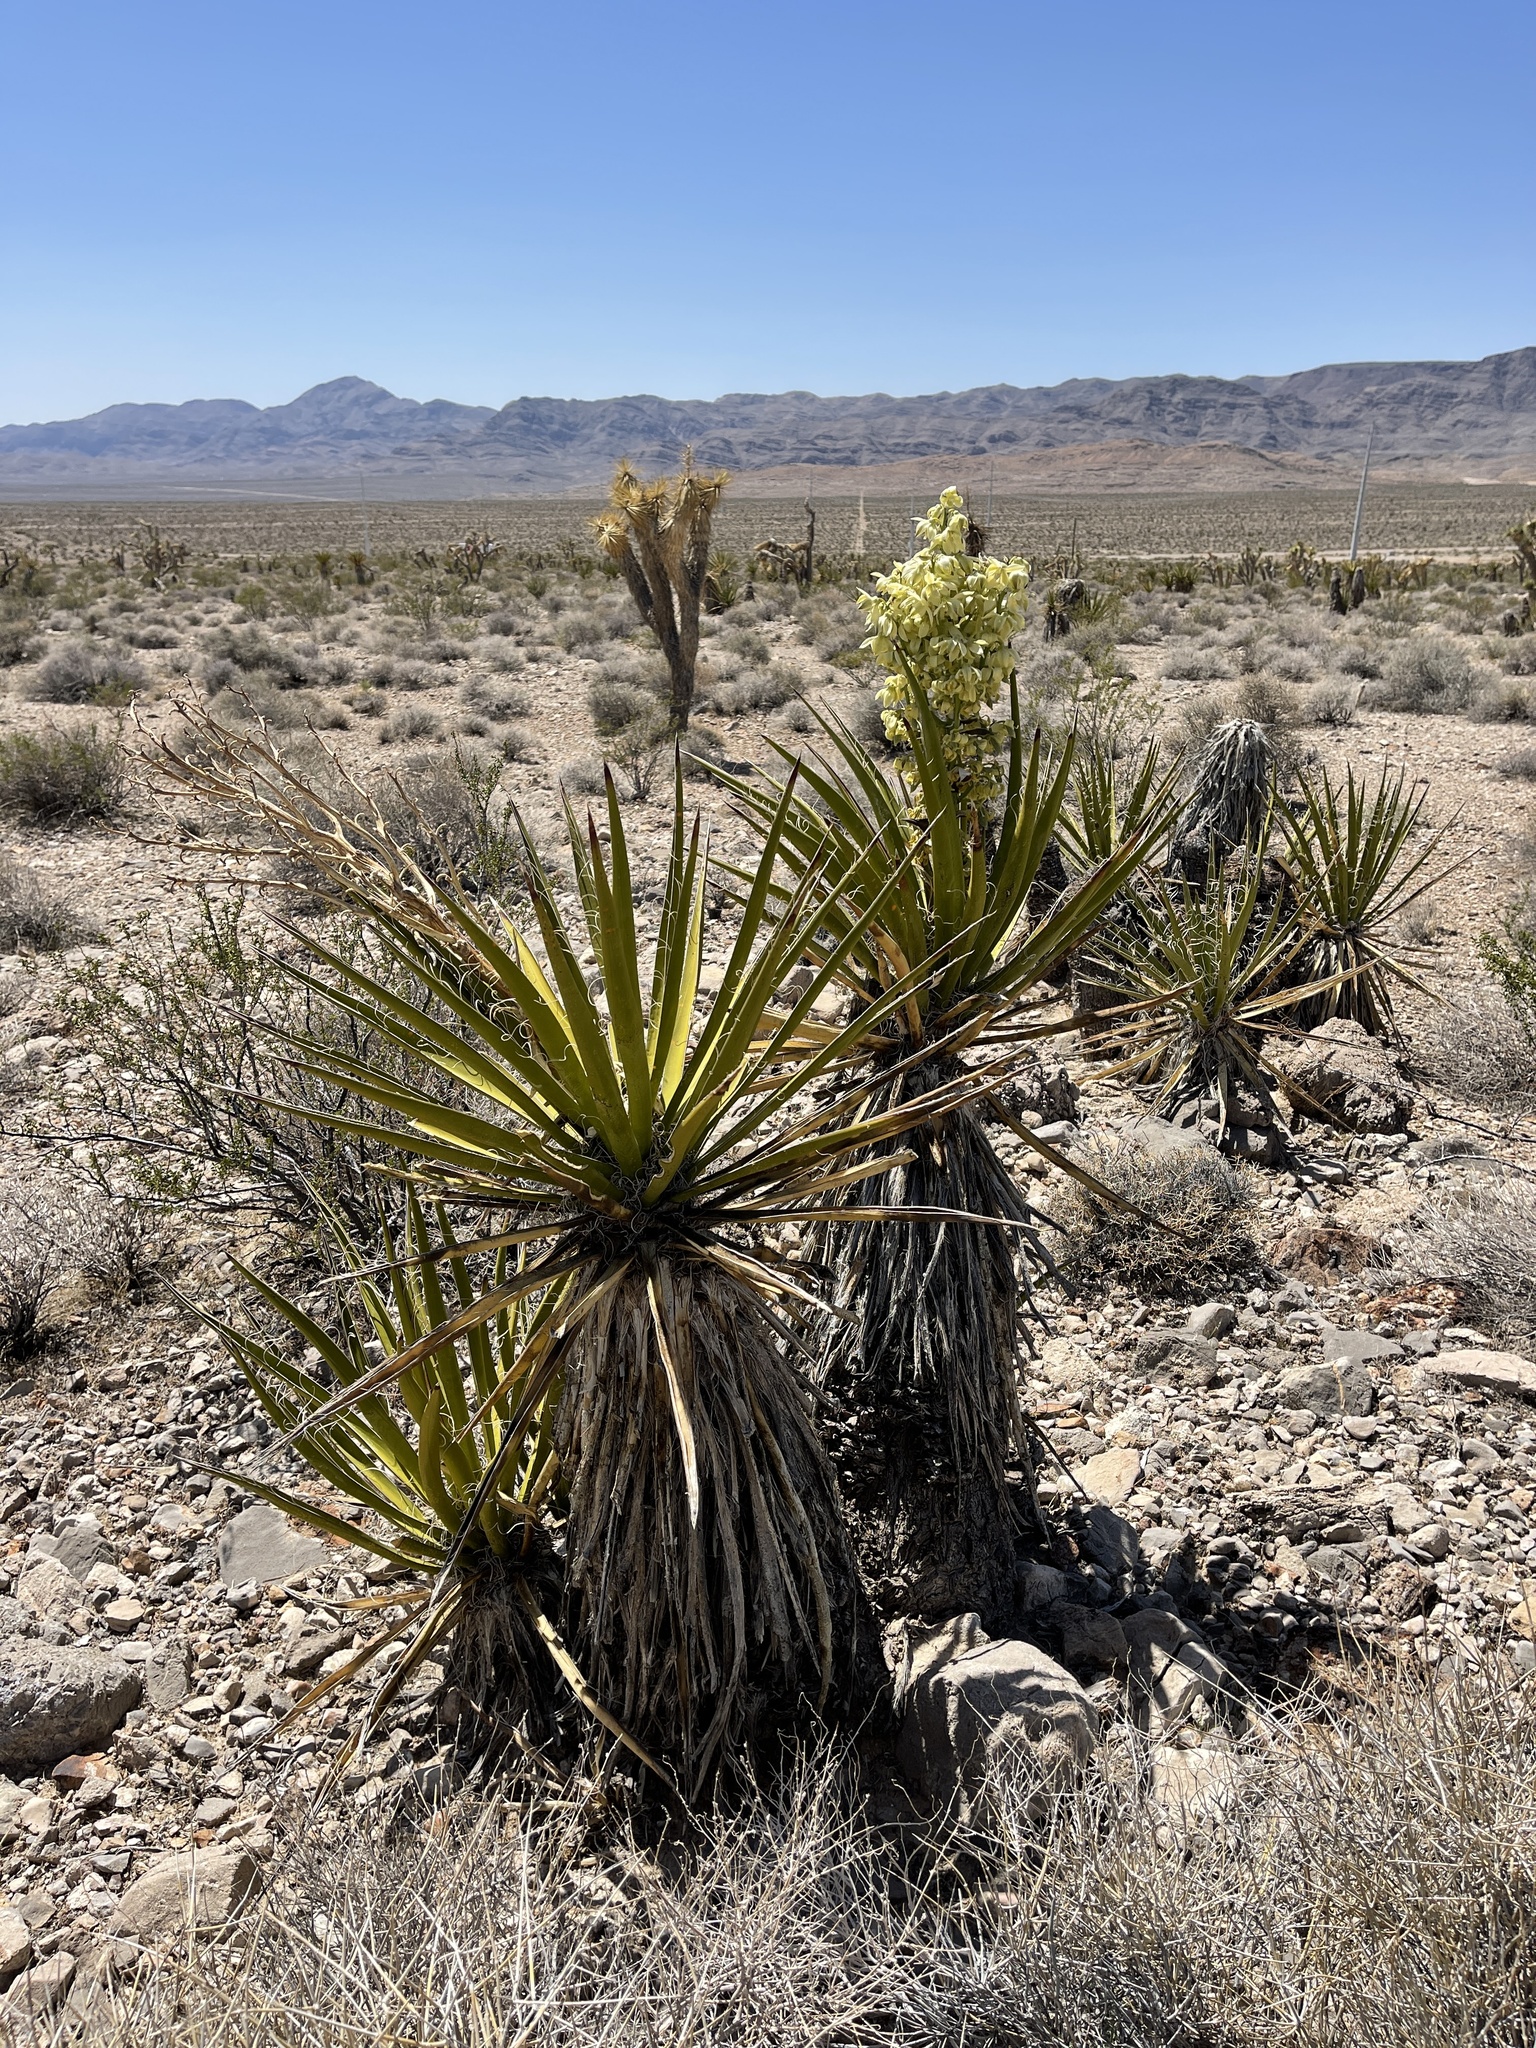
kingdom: Plantae
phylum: Tracheophyta
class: Liliopsida
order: Asparagales
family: Asparagaceae
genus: Yucca
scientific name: Yucca schidigera
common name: Mojave yucca
